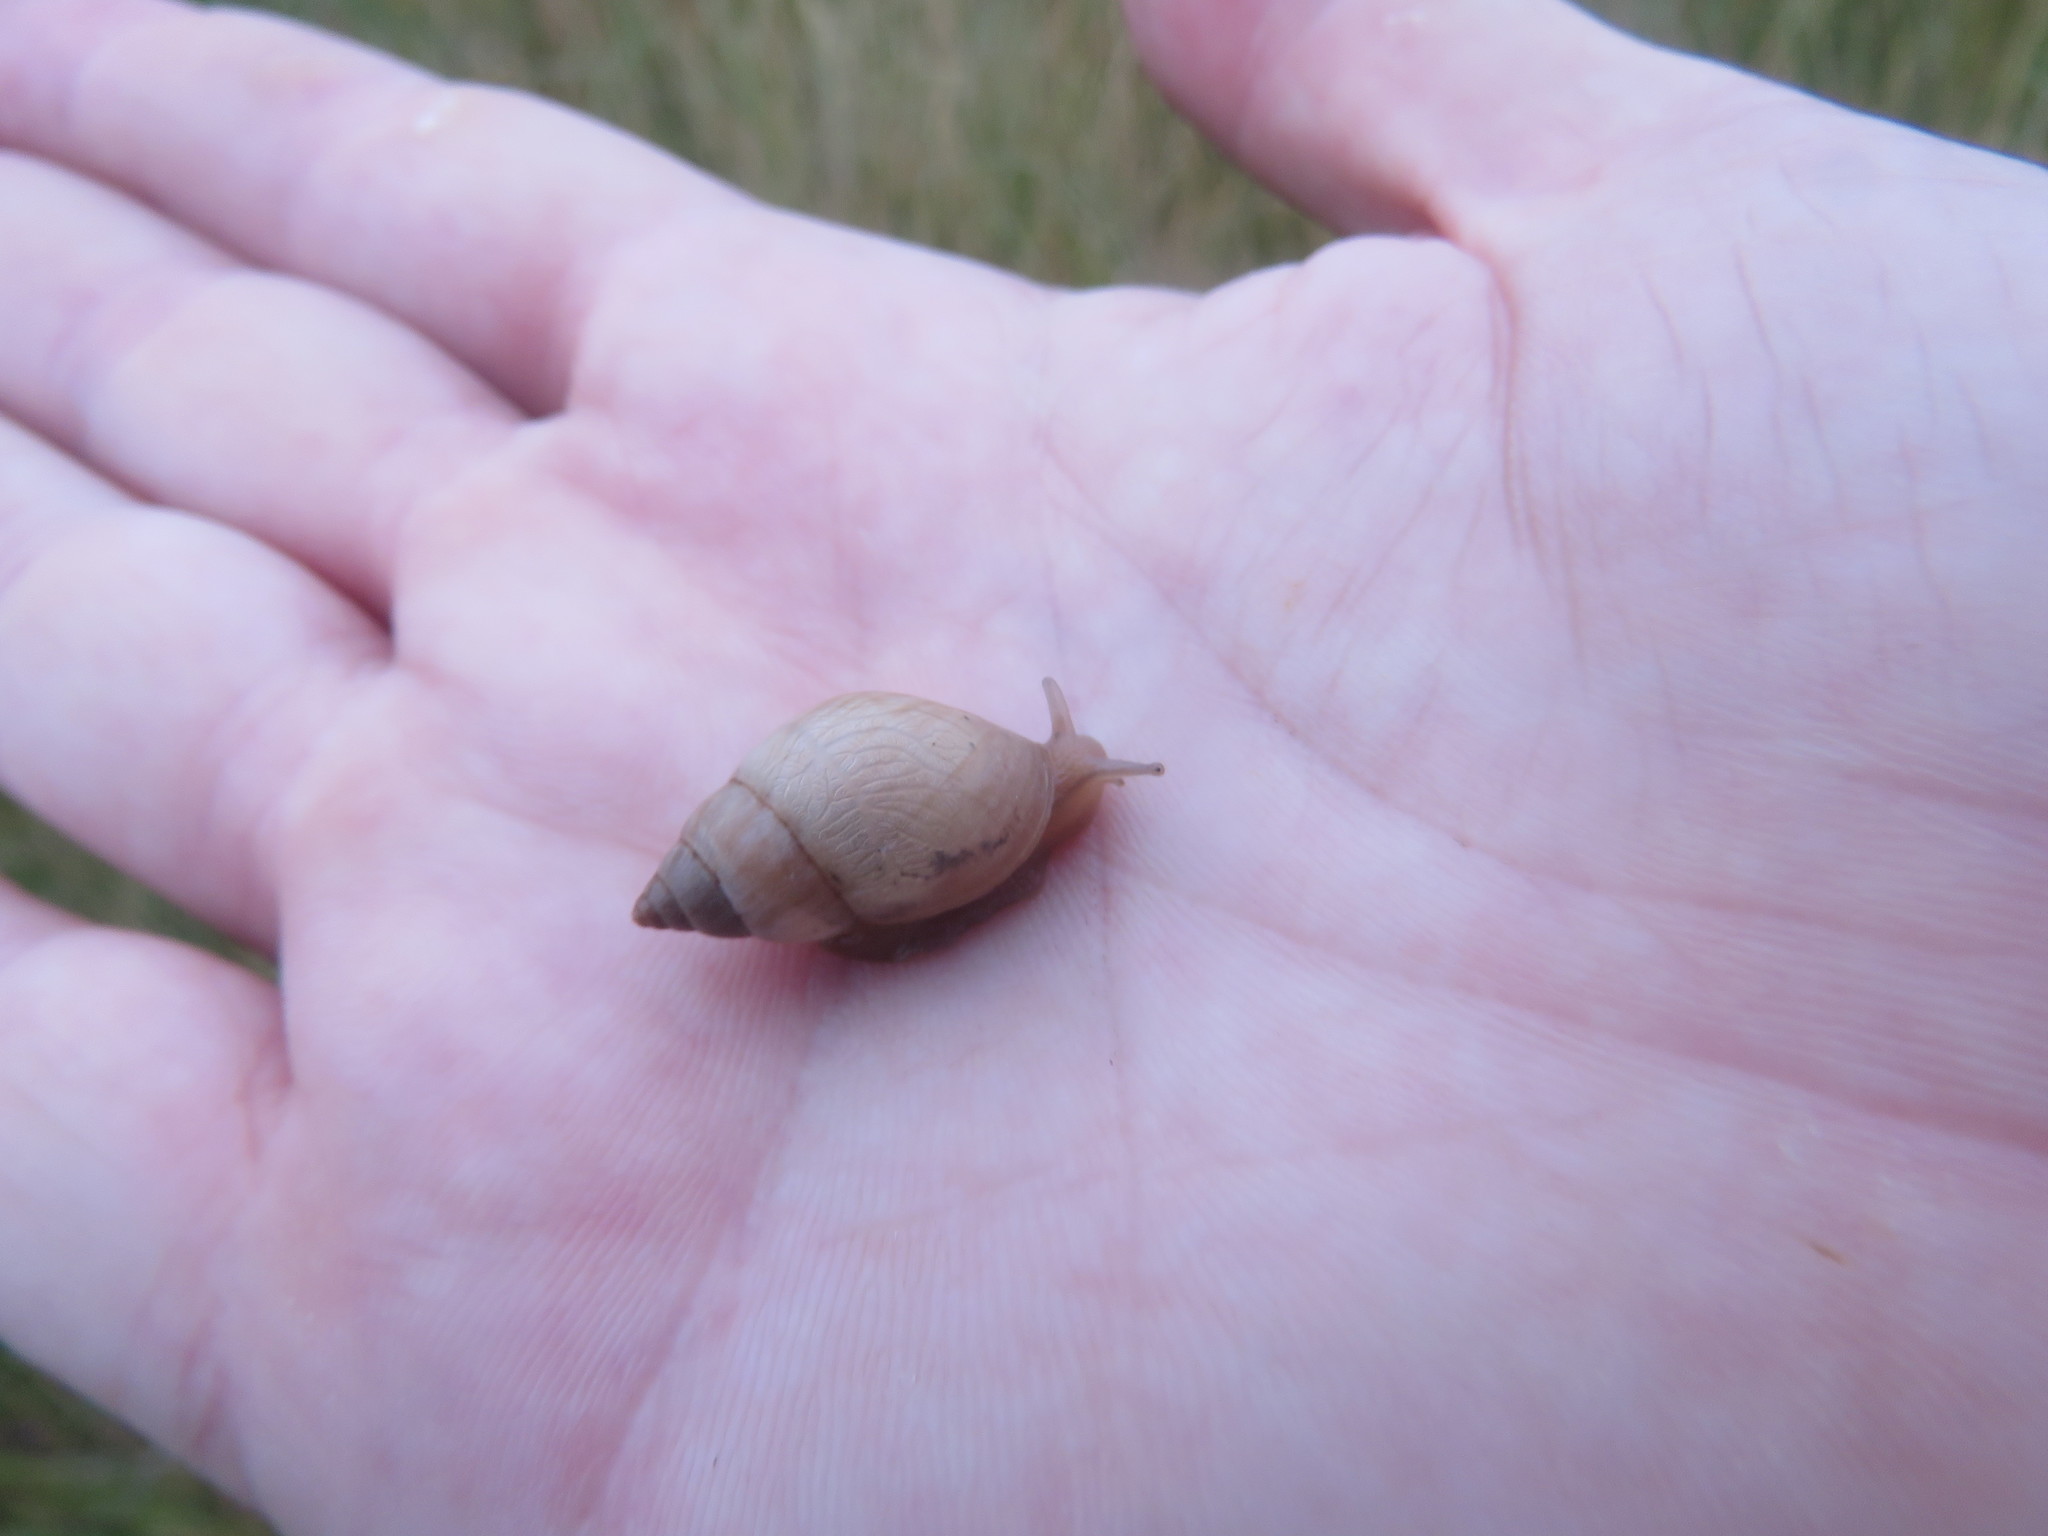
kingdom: Animalia
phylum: Mollusca
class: Gastropoda
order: Stylommatophora
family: Bulimulidae
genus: Bulimulus
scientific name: Bulimulus
